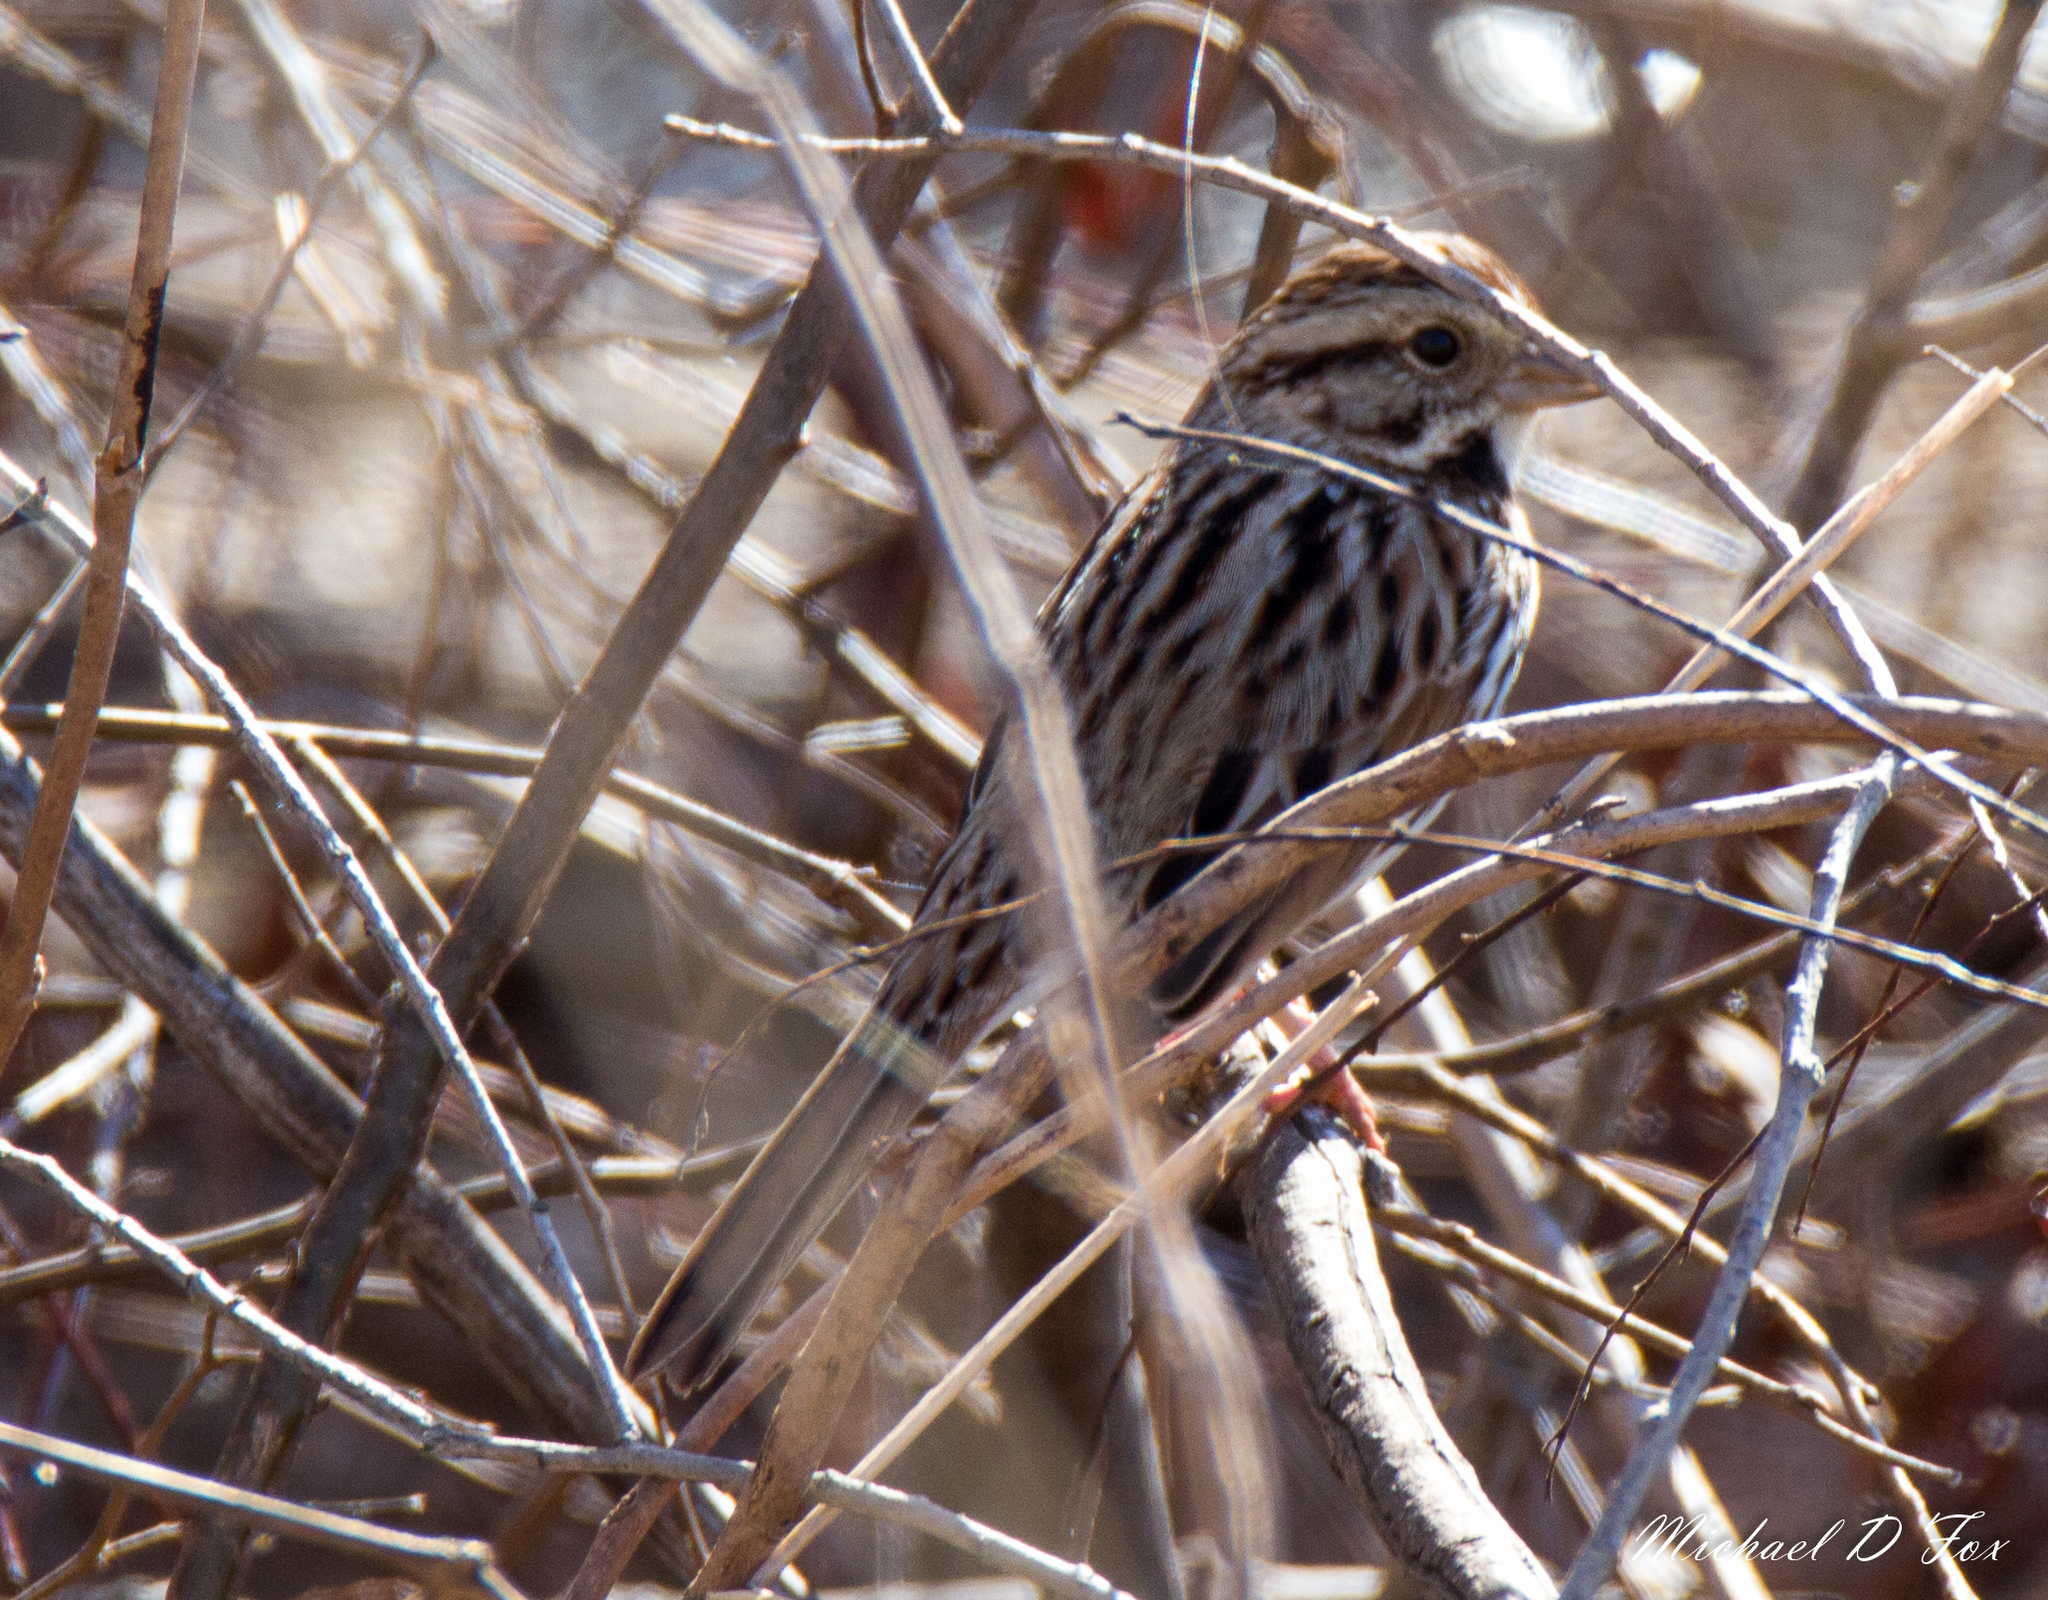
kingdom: Animalia
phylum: Chordata
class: Aves
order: Passeriformes
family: Passerellidae
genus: Melospiza
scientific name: Melospiza melodia
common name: Song sparrow
